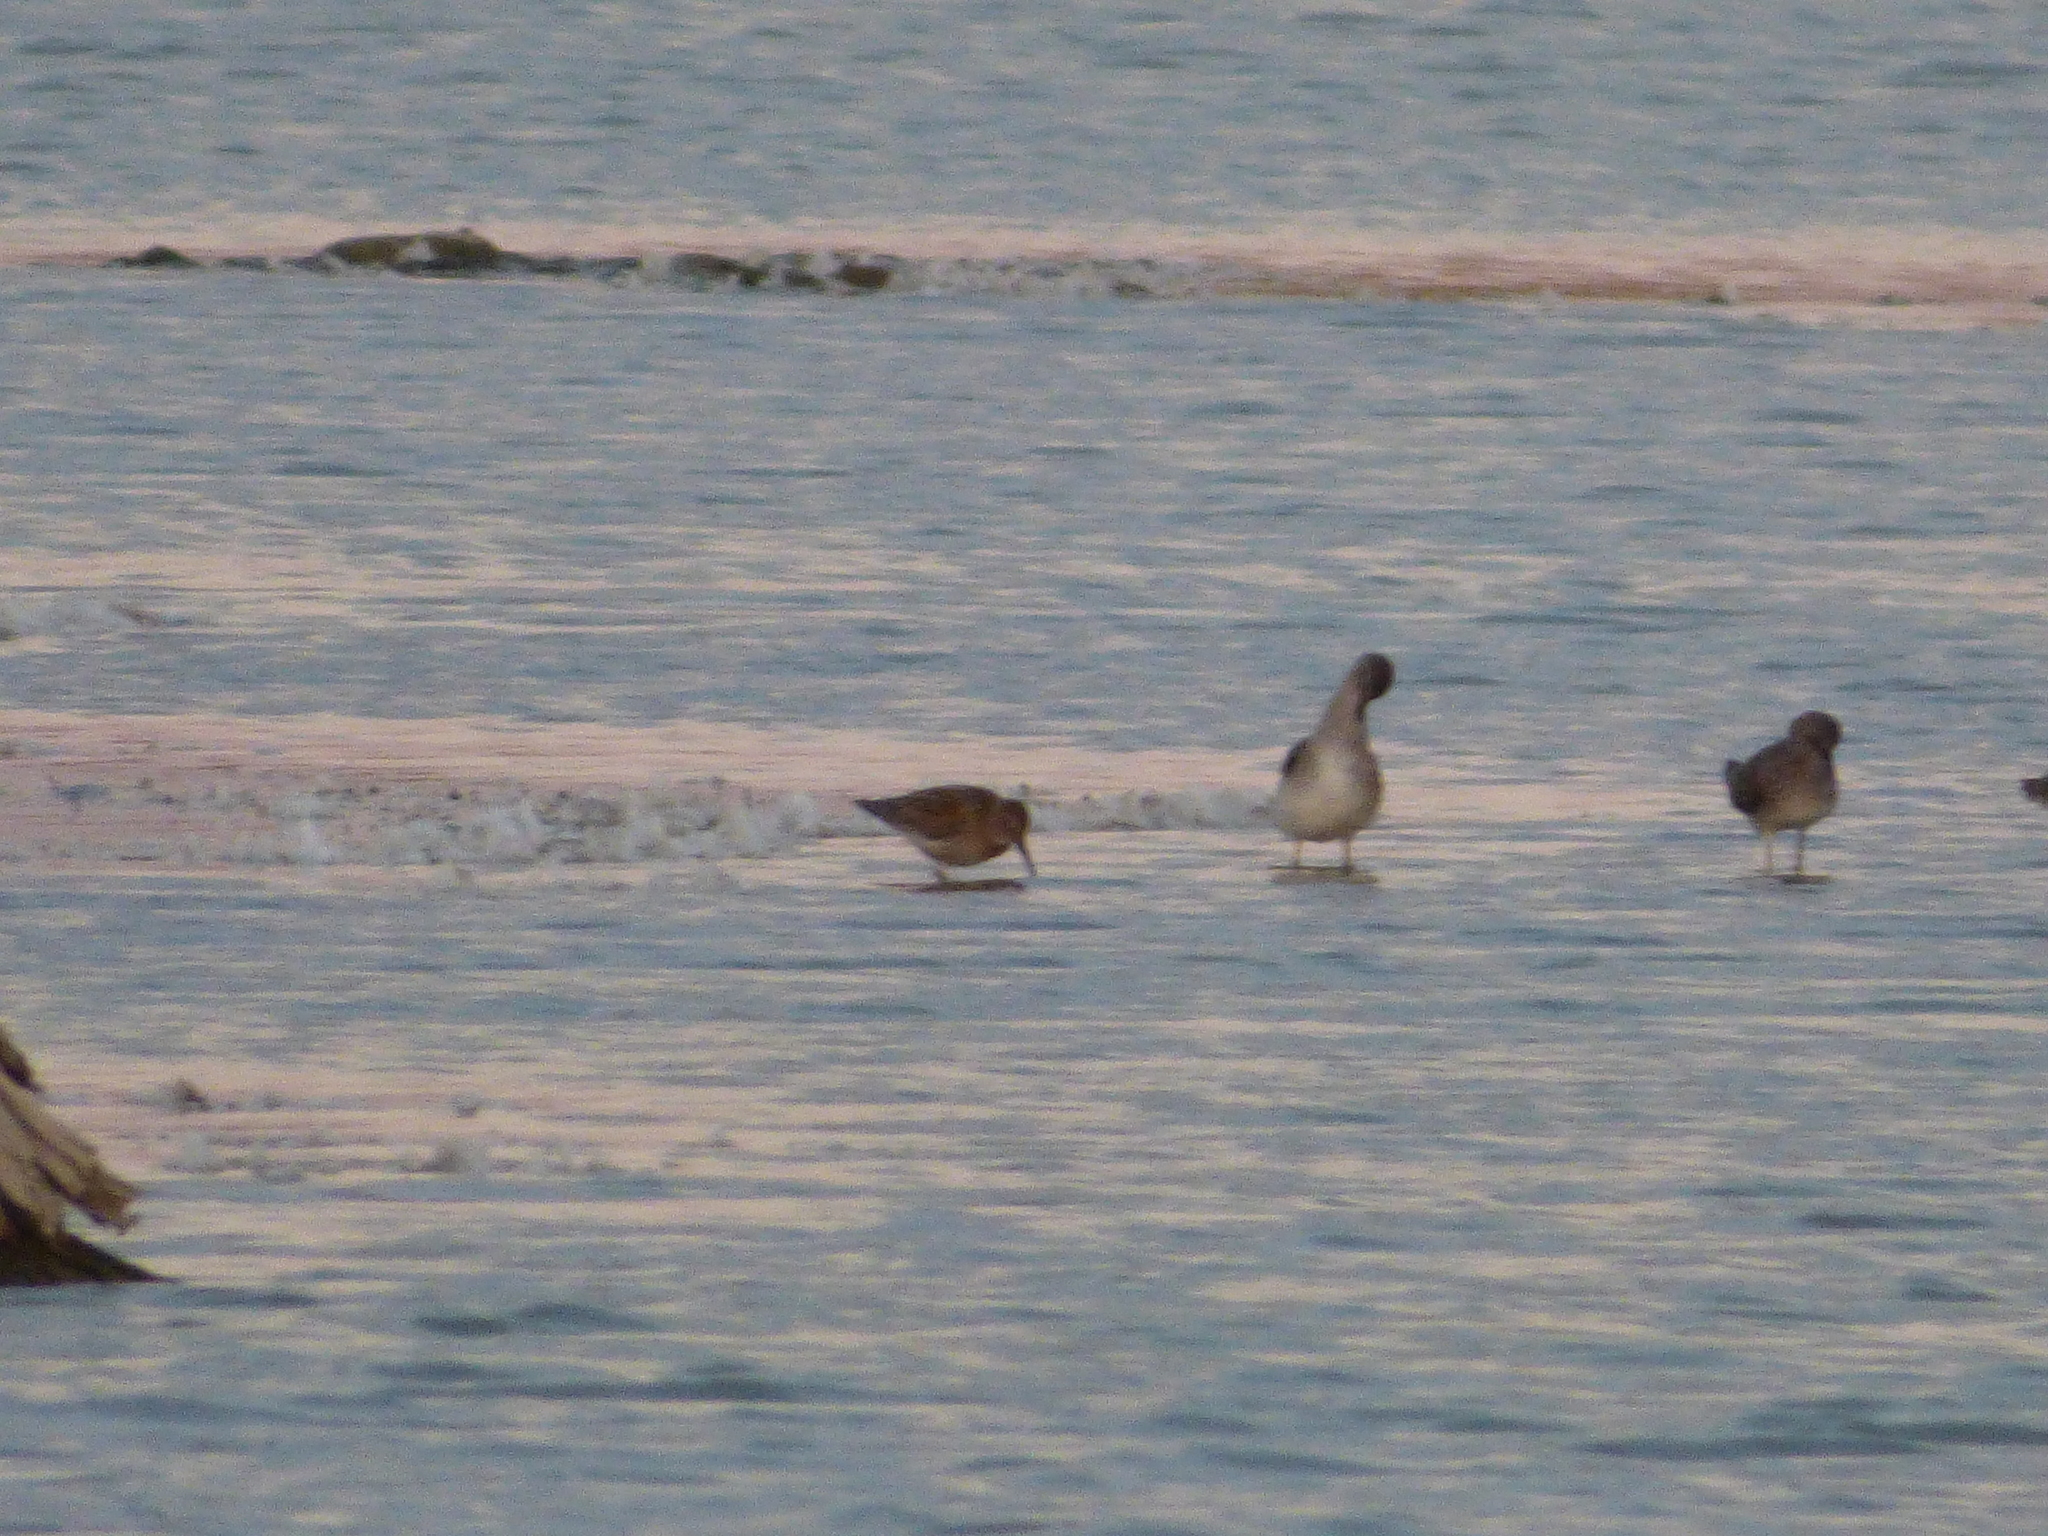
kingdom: Animalia
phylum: Chordata
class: Aves
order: Charadriiformes
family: Scolopacidae
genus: Calidris
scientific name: Calidris alpina
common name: Dunlin
